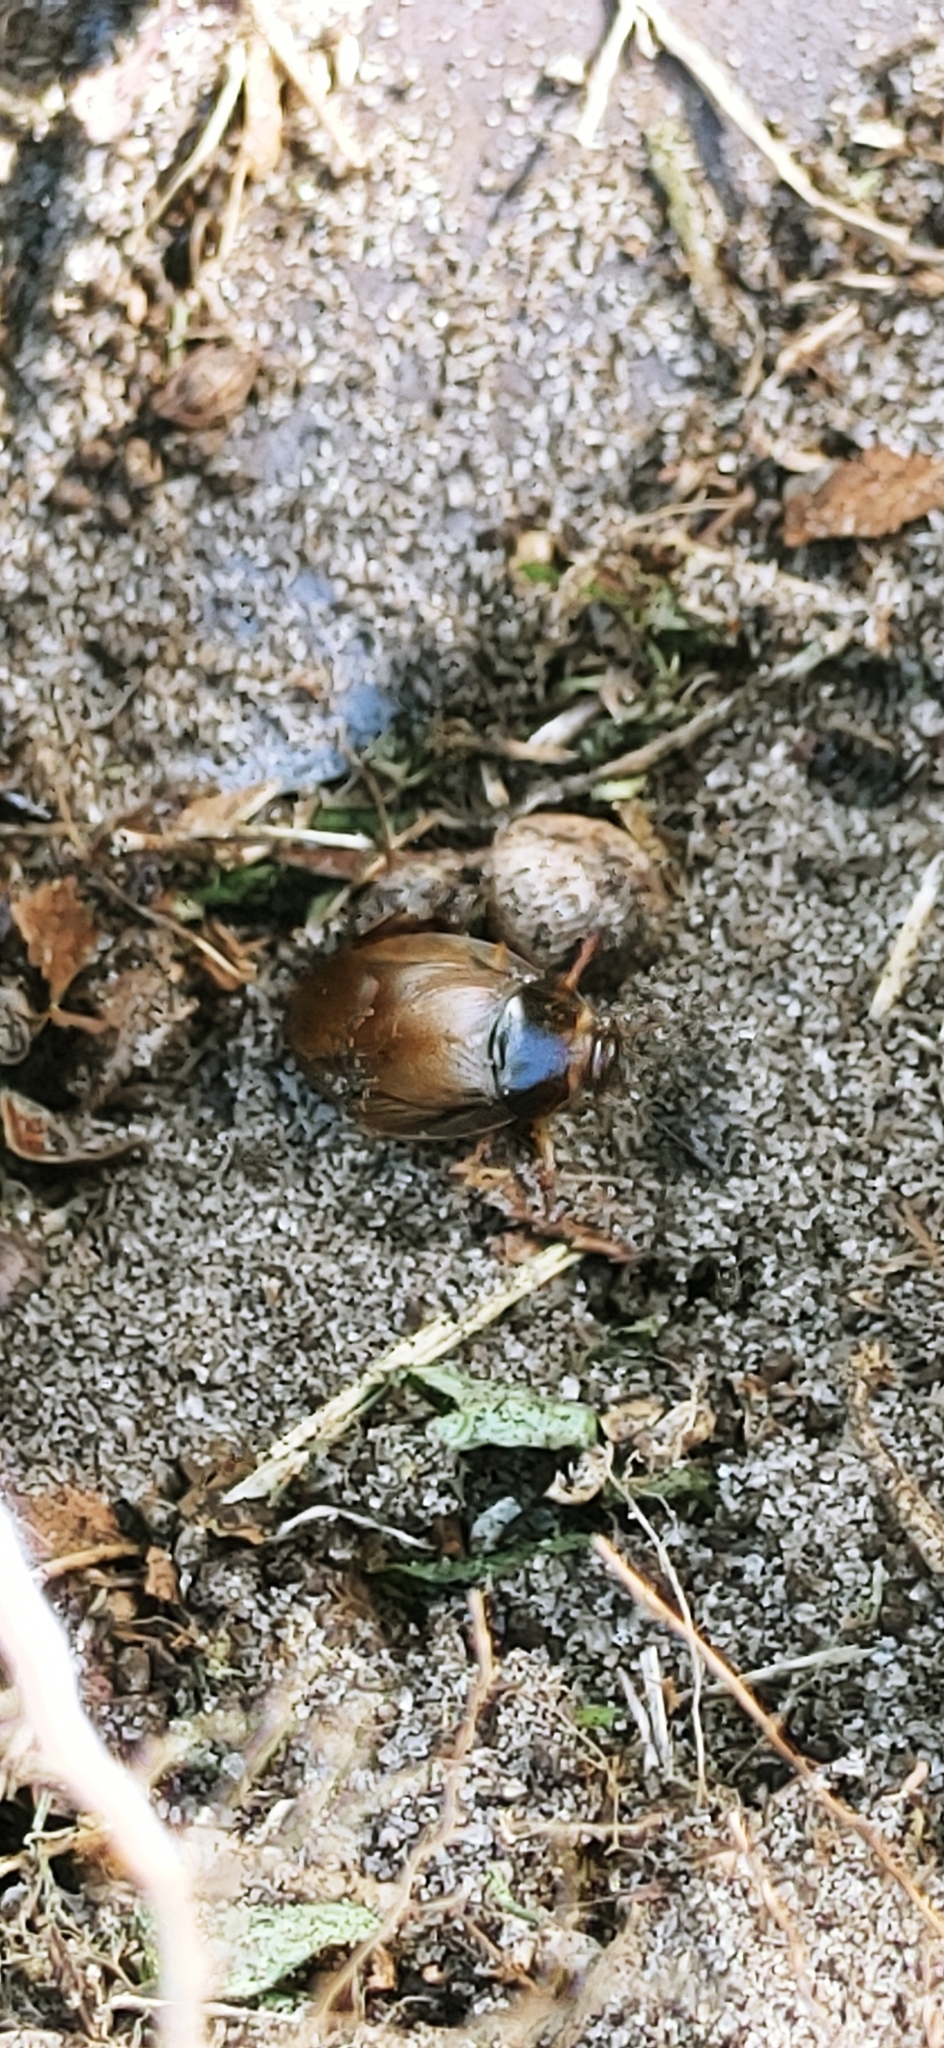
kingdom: Animalia
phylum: Arthropoda
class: Insecta
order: Blattodea
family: Blaberidae
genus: Pycnoscelus
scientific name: Pycnoscelus surinamensis
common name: Surinam cockroach
